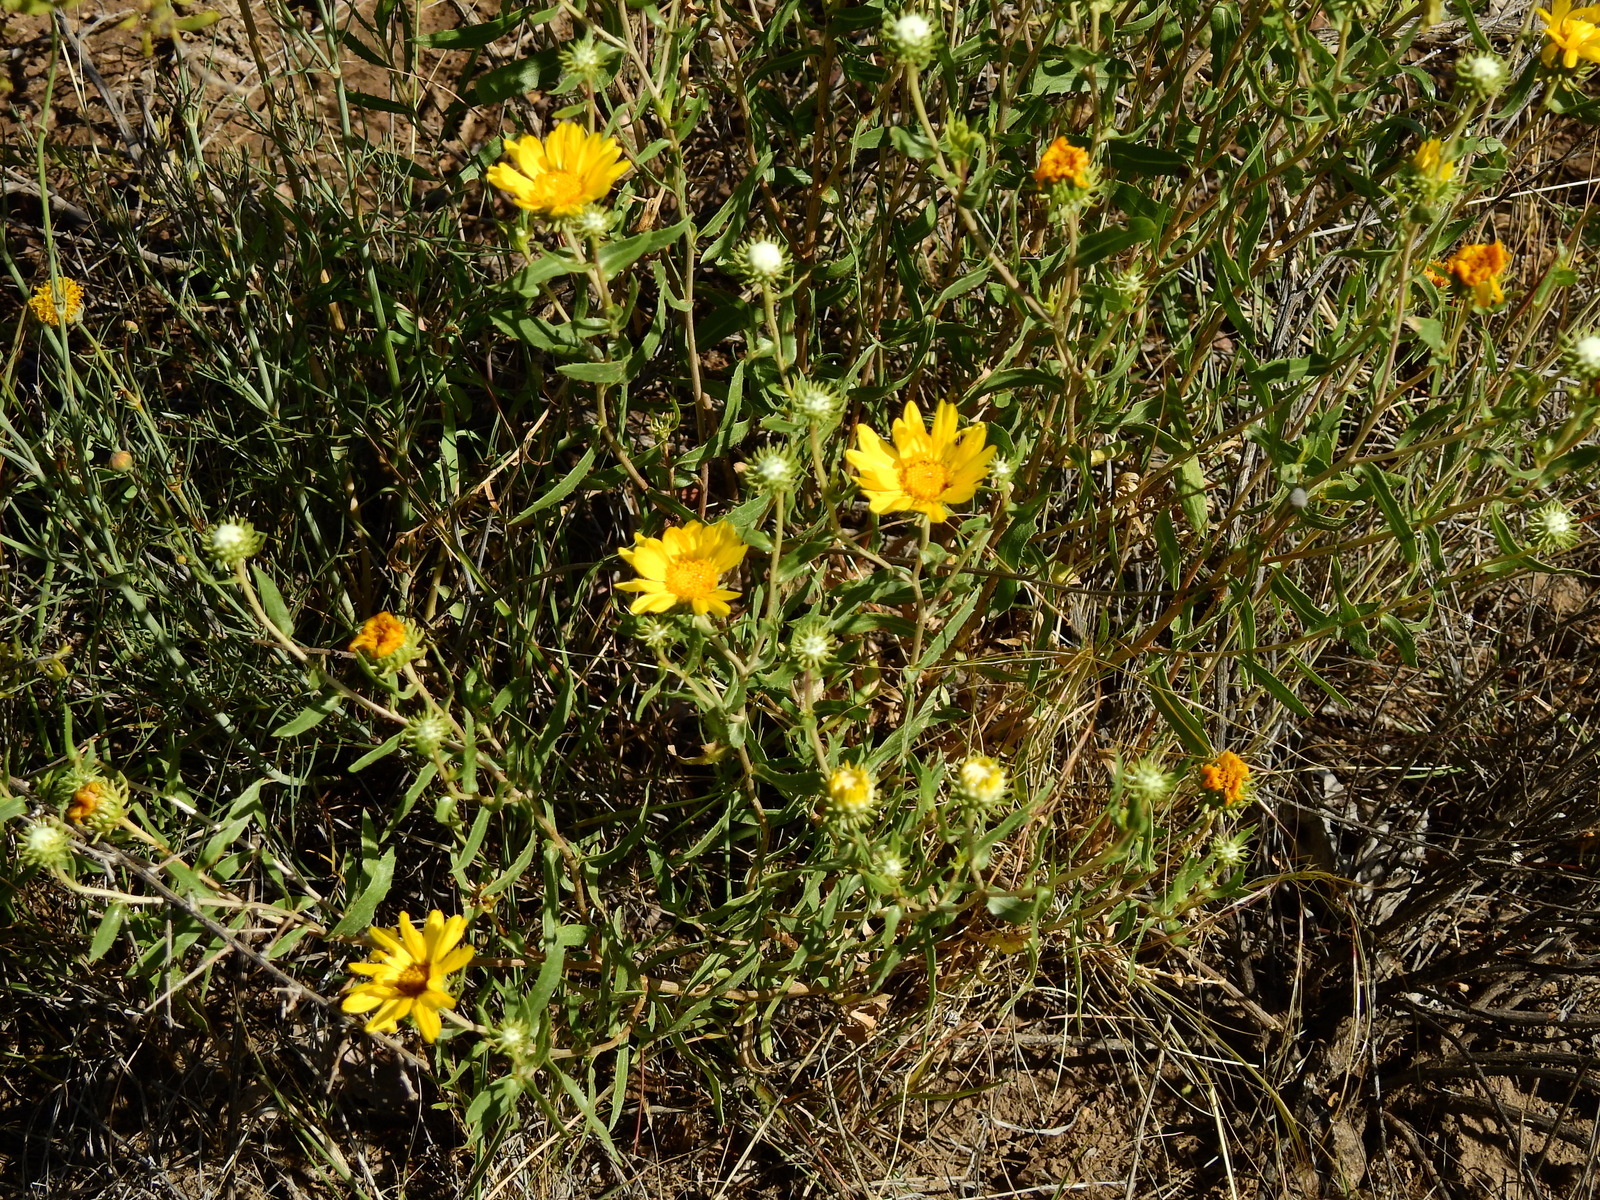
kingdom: Plantae
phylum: Tracheophyta
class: Magnoliopsida
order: Asterales
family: Asteraceae
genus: Grindelia
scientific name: Grindelia pulchella
